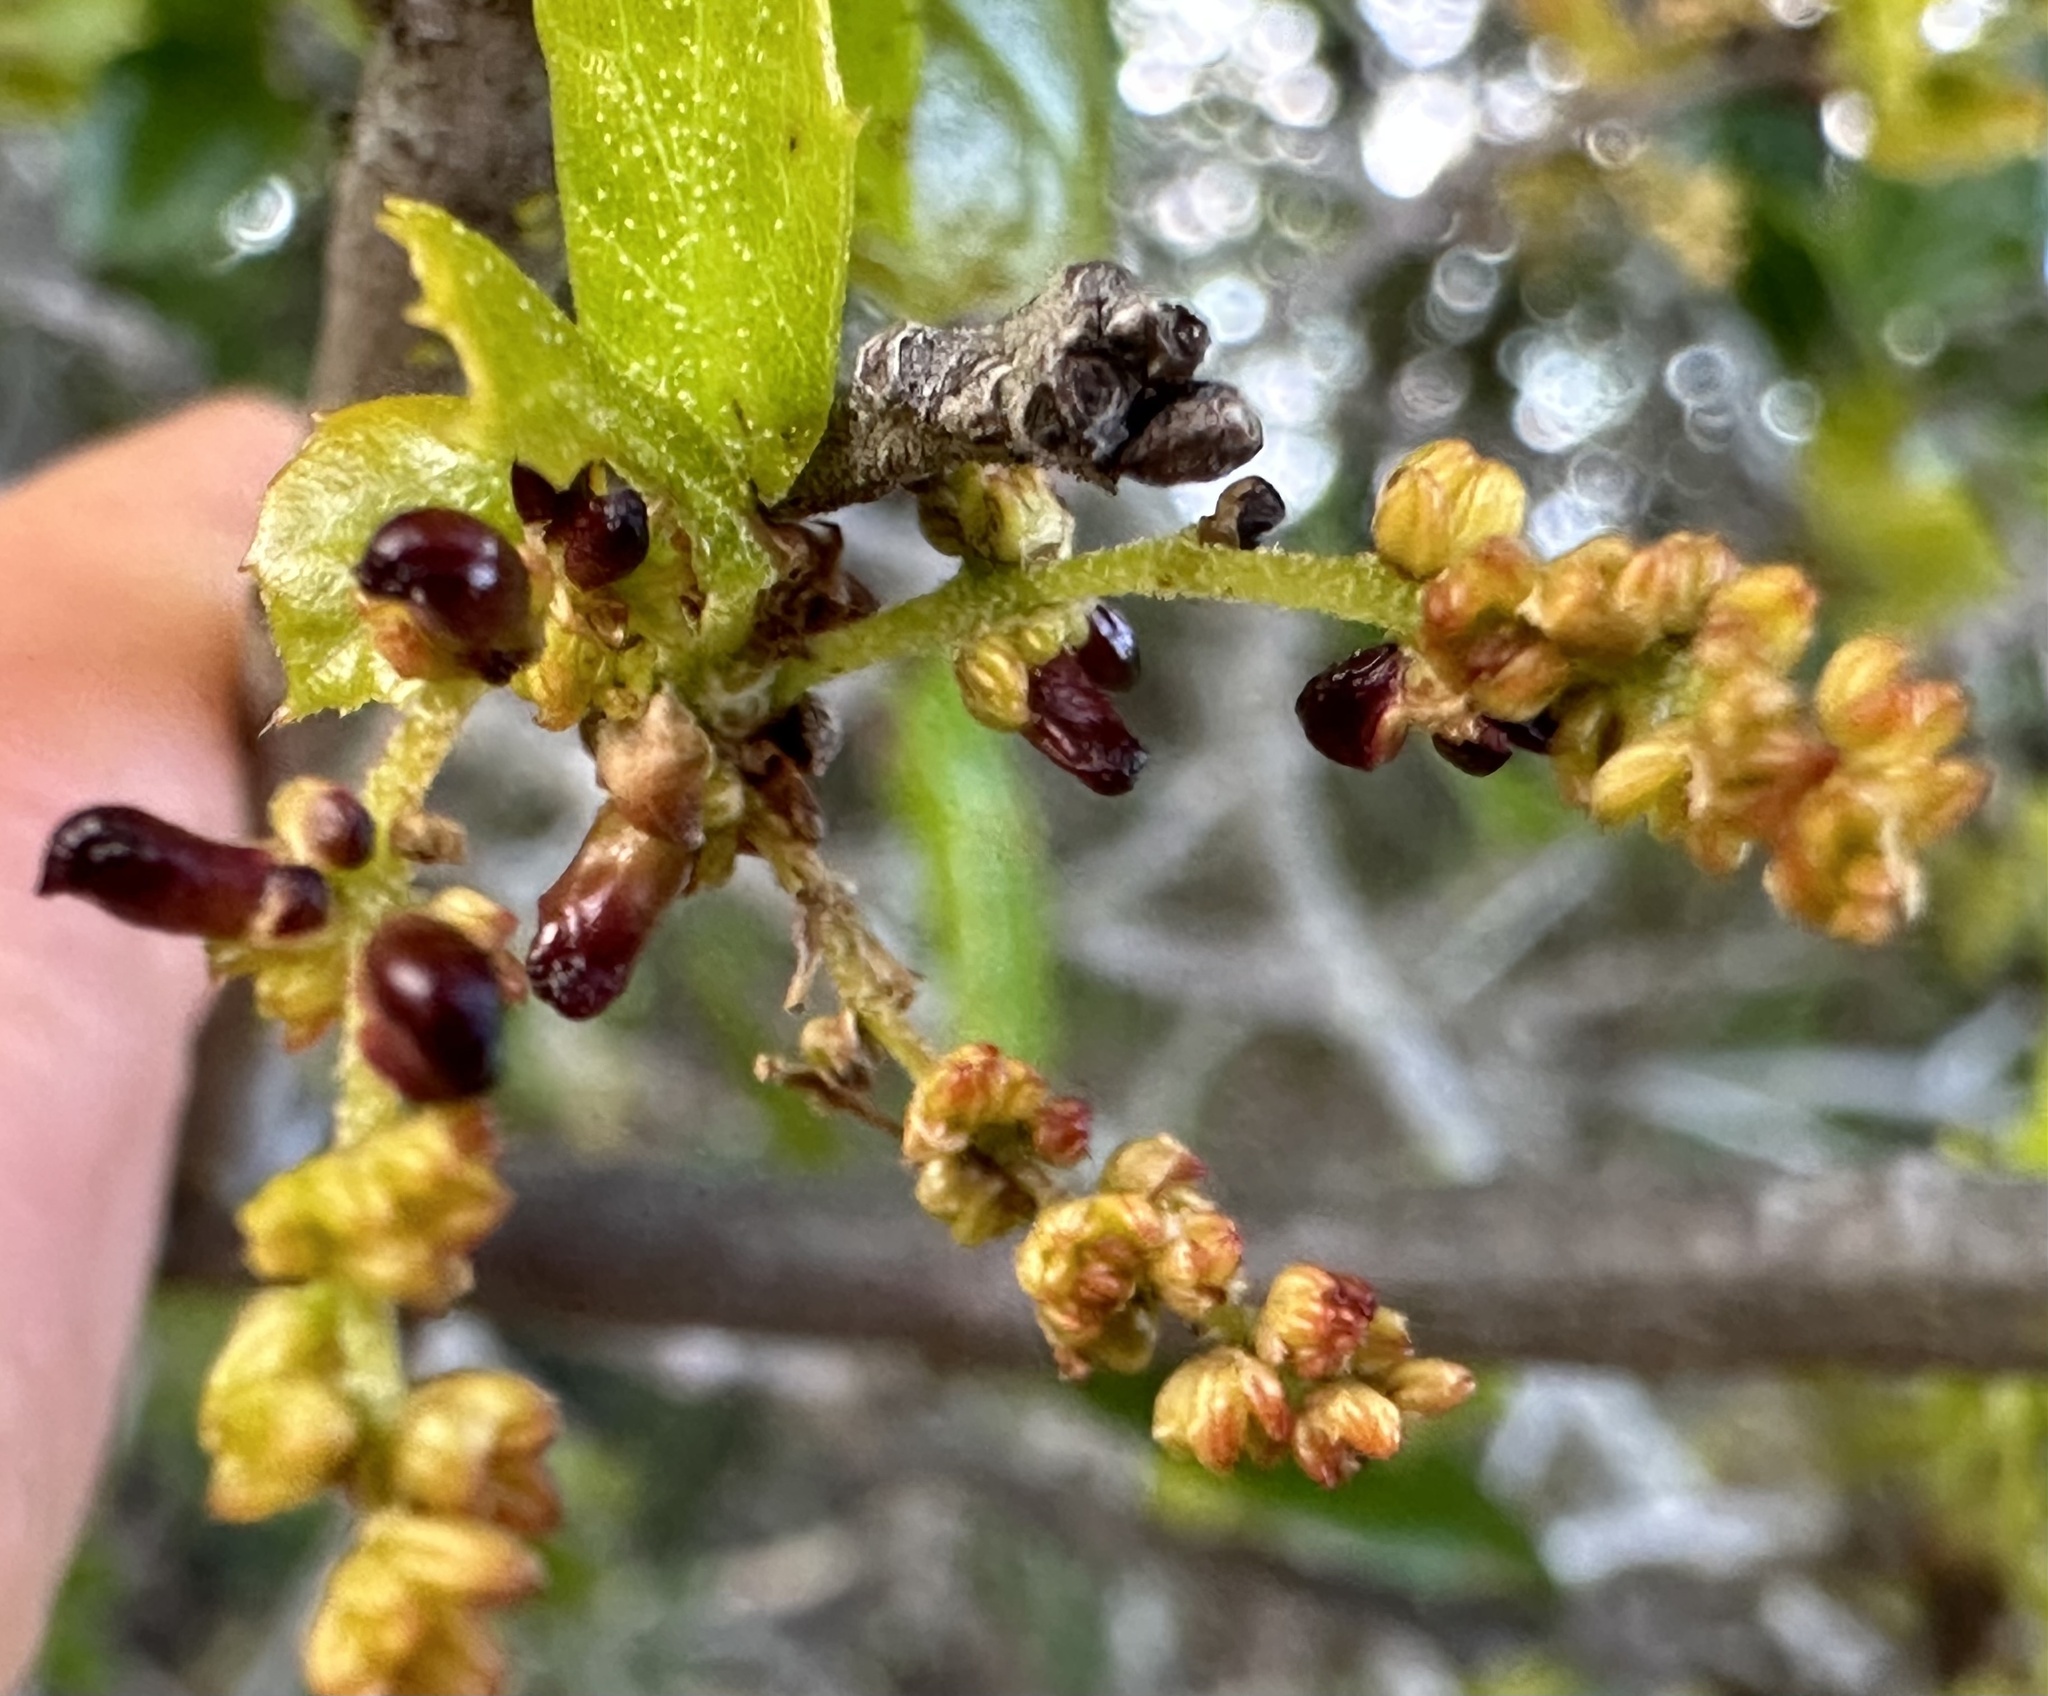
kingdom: Animalia
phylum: Arthropoda
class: Insecta
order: Hymenoptera
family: Cynipidae
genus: Dryocosmus
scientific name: Dryocosmus
